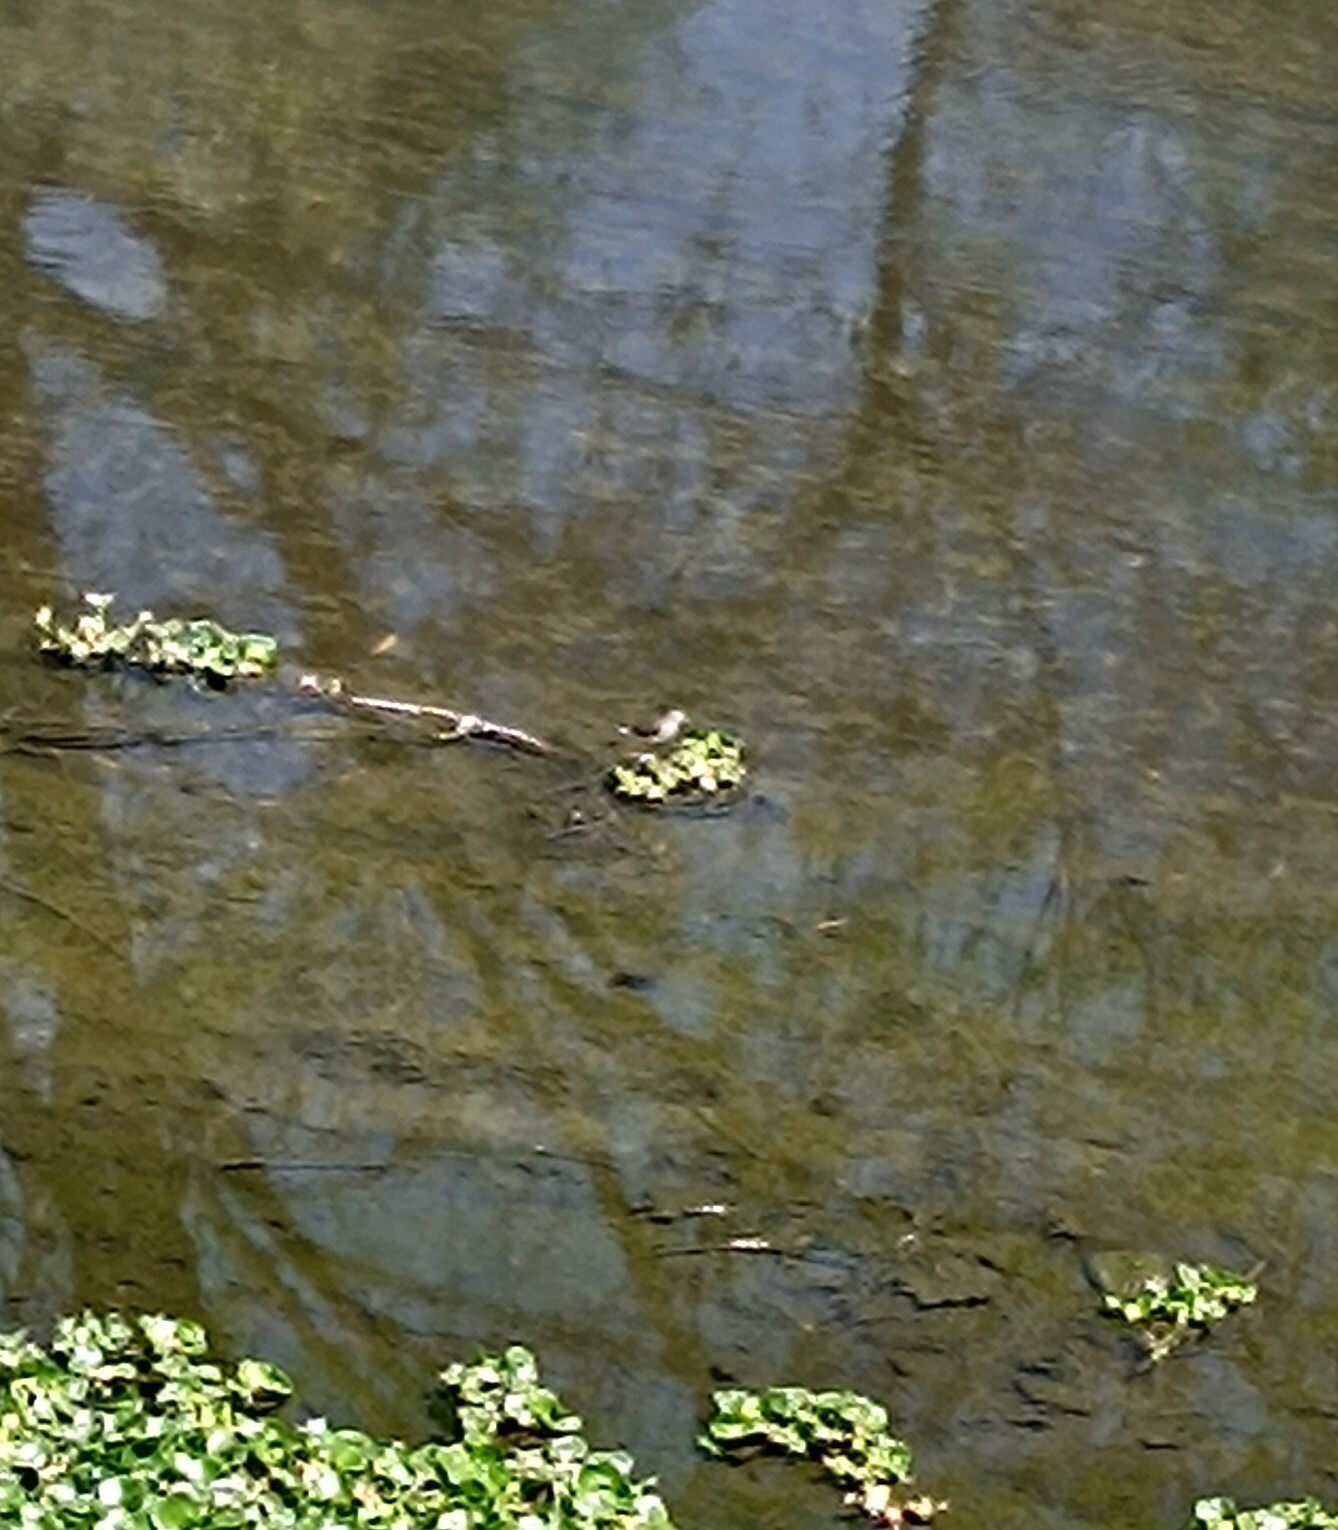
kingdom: Animalia
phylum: Chordata
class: Aves
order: Charadriiformes
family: Scolopacidae
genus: Tringa
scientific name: Tringa solitaria
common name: Solitary sandpiper
